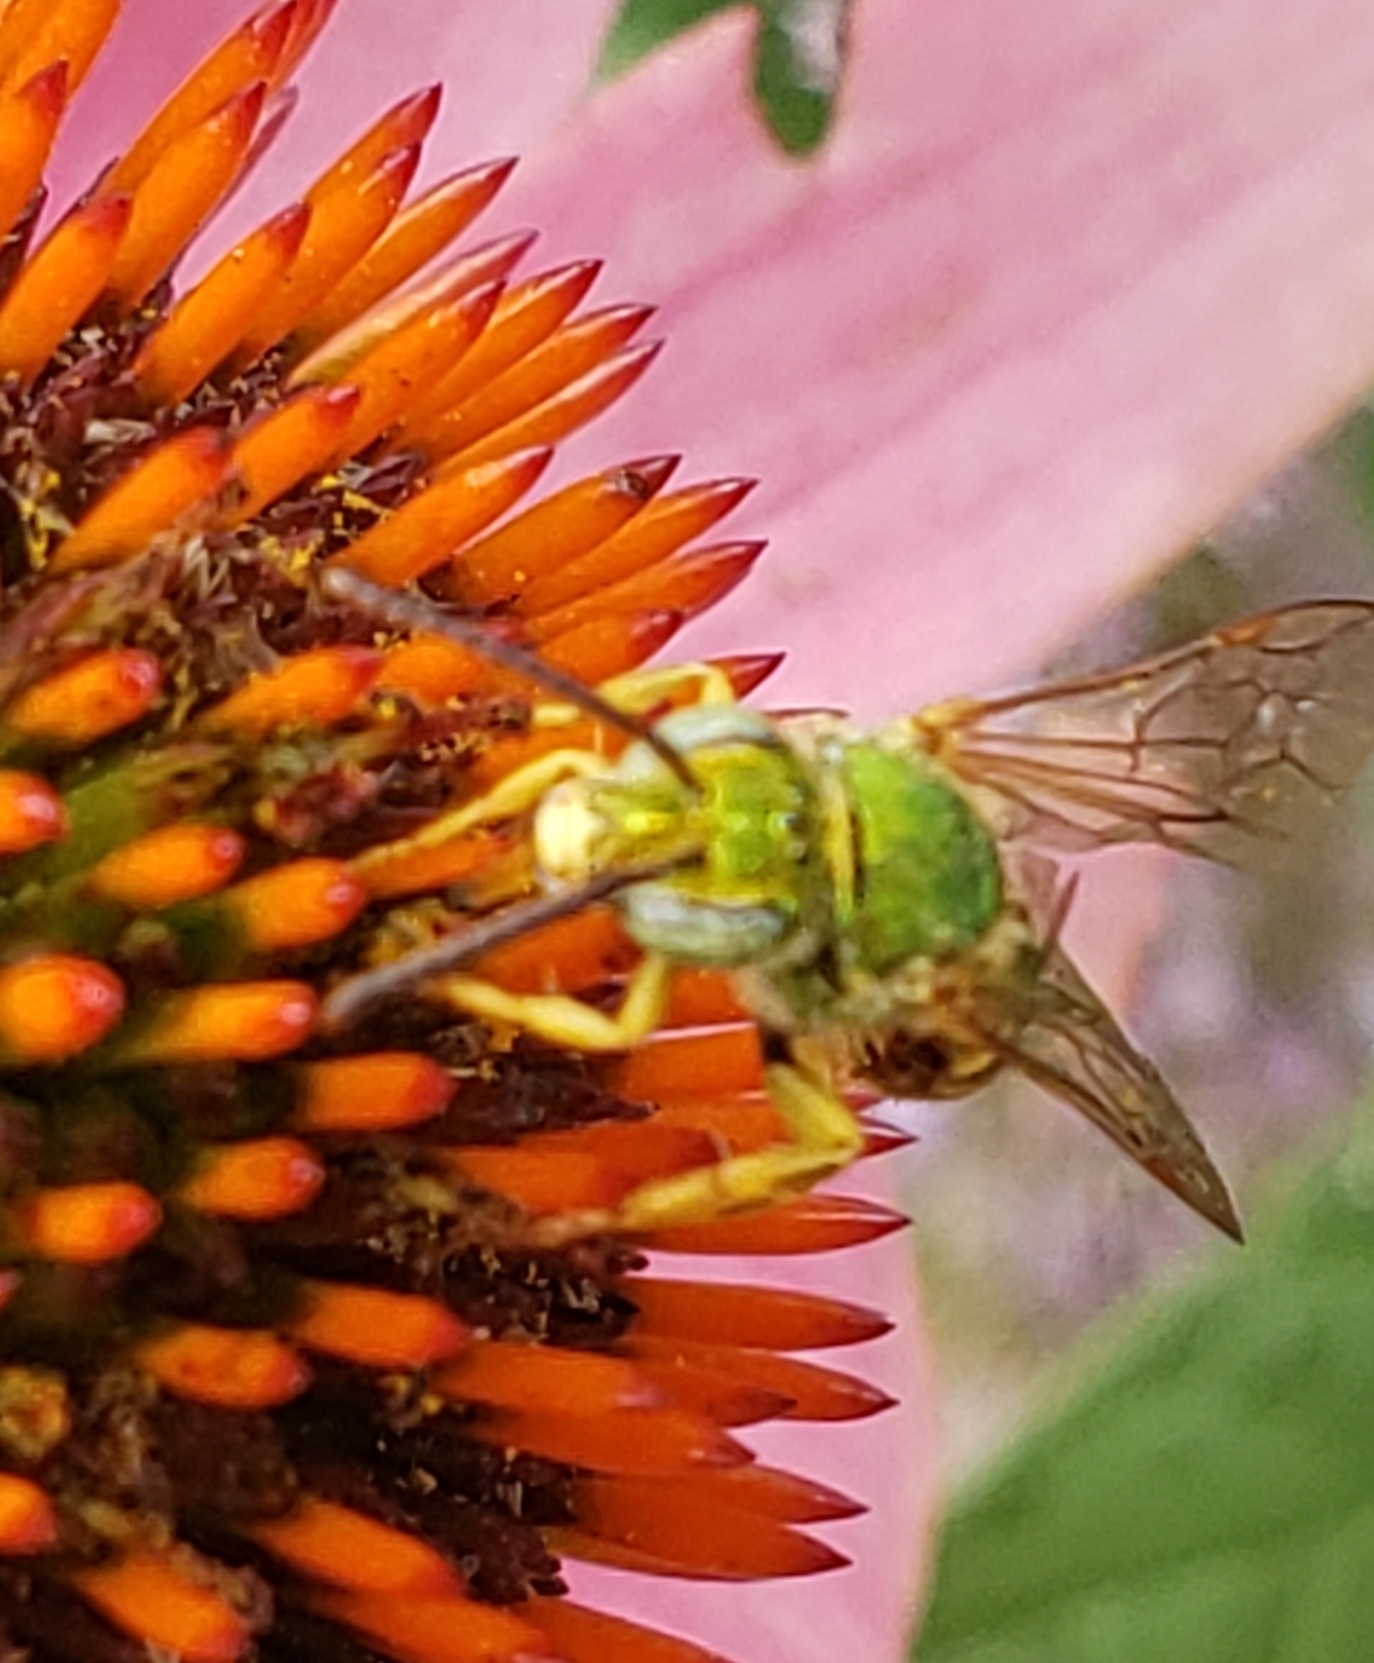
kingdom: Animalia
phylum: Arthropoda
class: Insecta
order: Hymenoptera
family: Halictidae
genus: Agapostemon
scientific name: Agapostemon virescens
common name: Bicolored striped sweat bee
